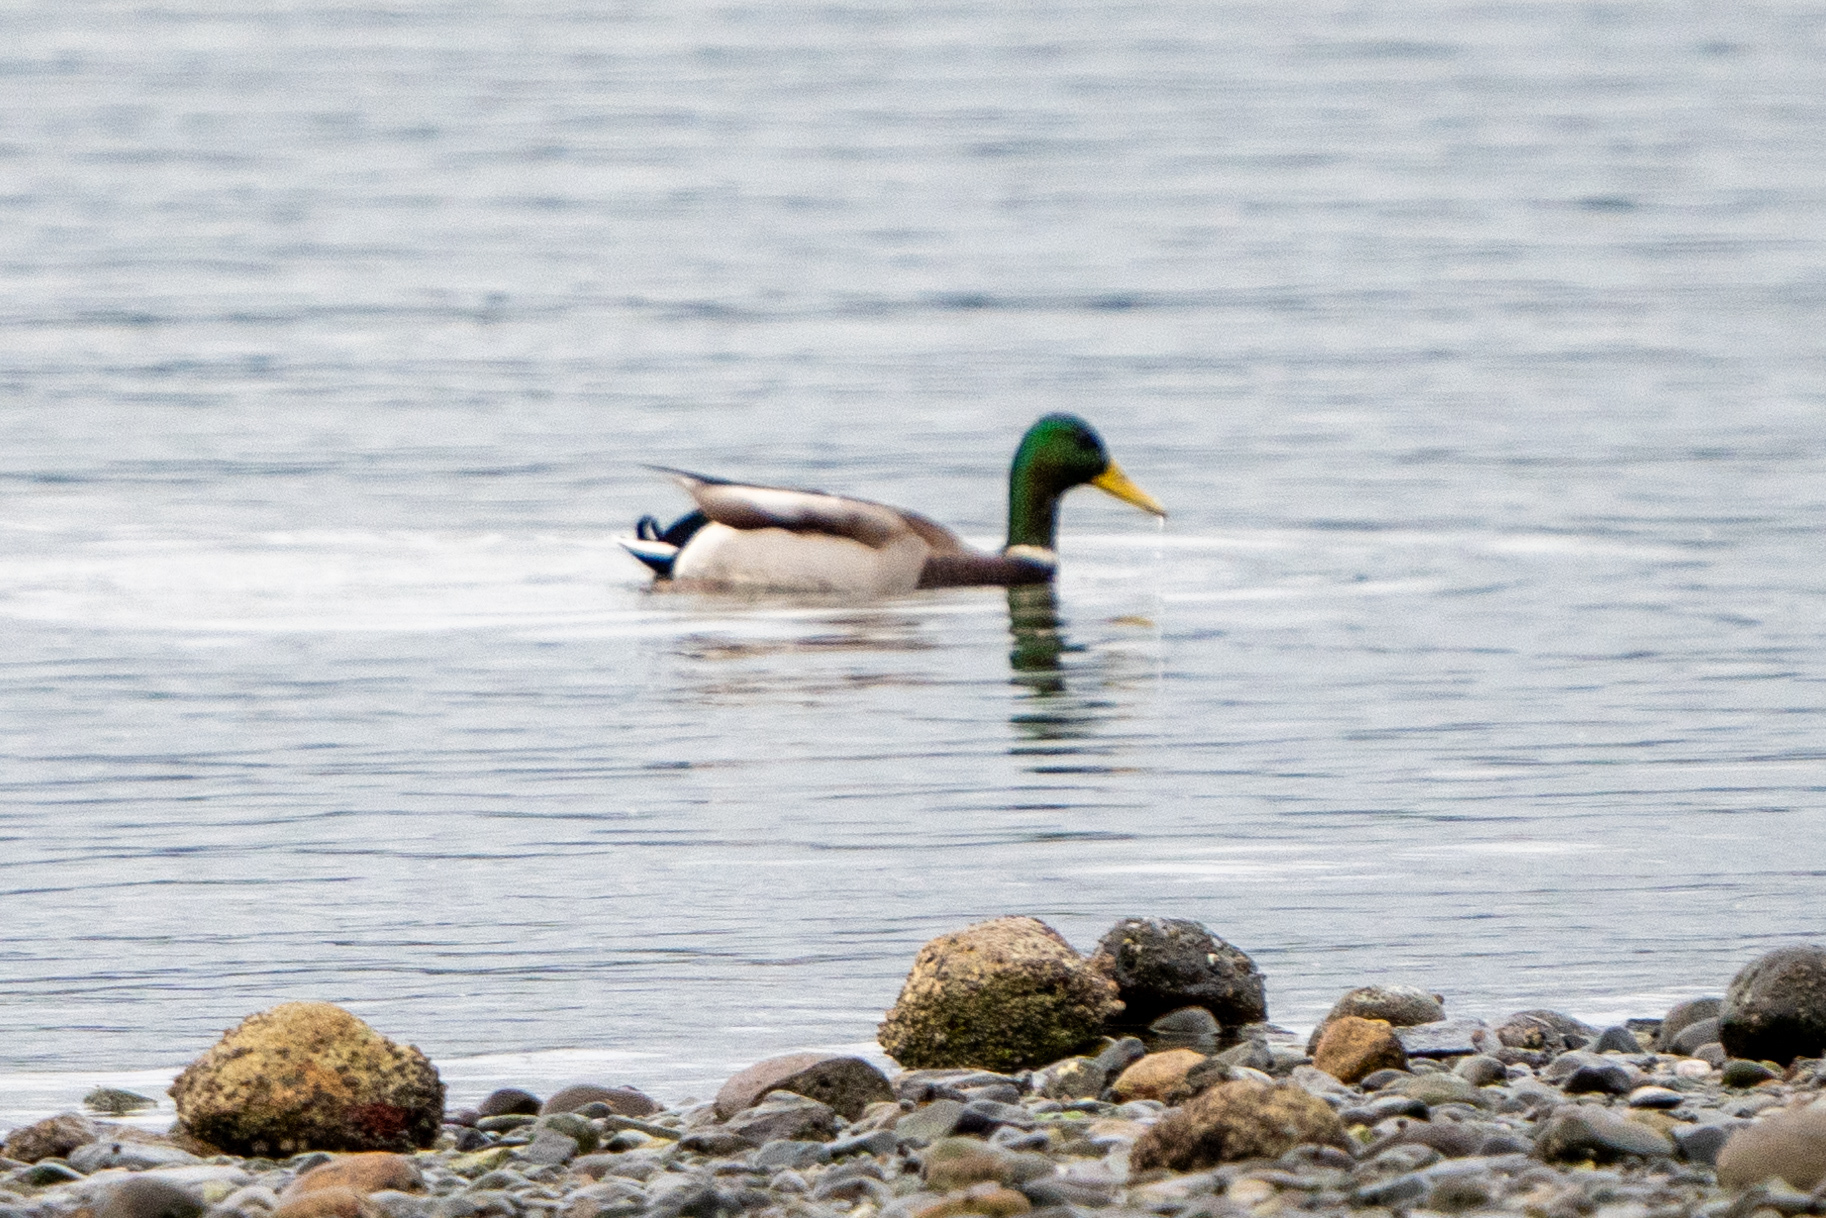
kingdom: Animalia
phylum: Chordata
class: Aves
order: Anseriformes
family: Anatidae
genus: Anas
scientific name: Anas platyrhynchos
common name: Mallard
